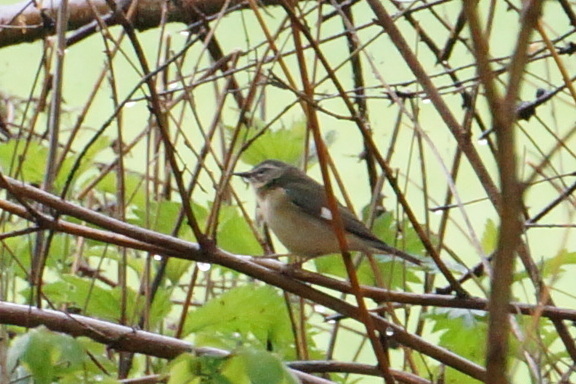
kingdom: Animalia
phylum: Chordata
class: Aves
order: Passeriformes
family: Parulidae
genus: Setophaga
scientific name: Setophaga caerulescens
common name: Black-throated blue warbler
